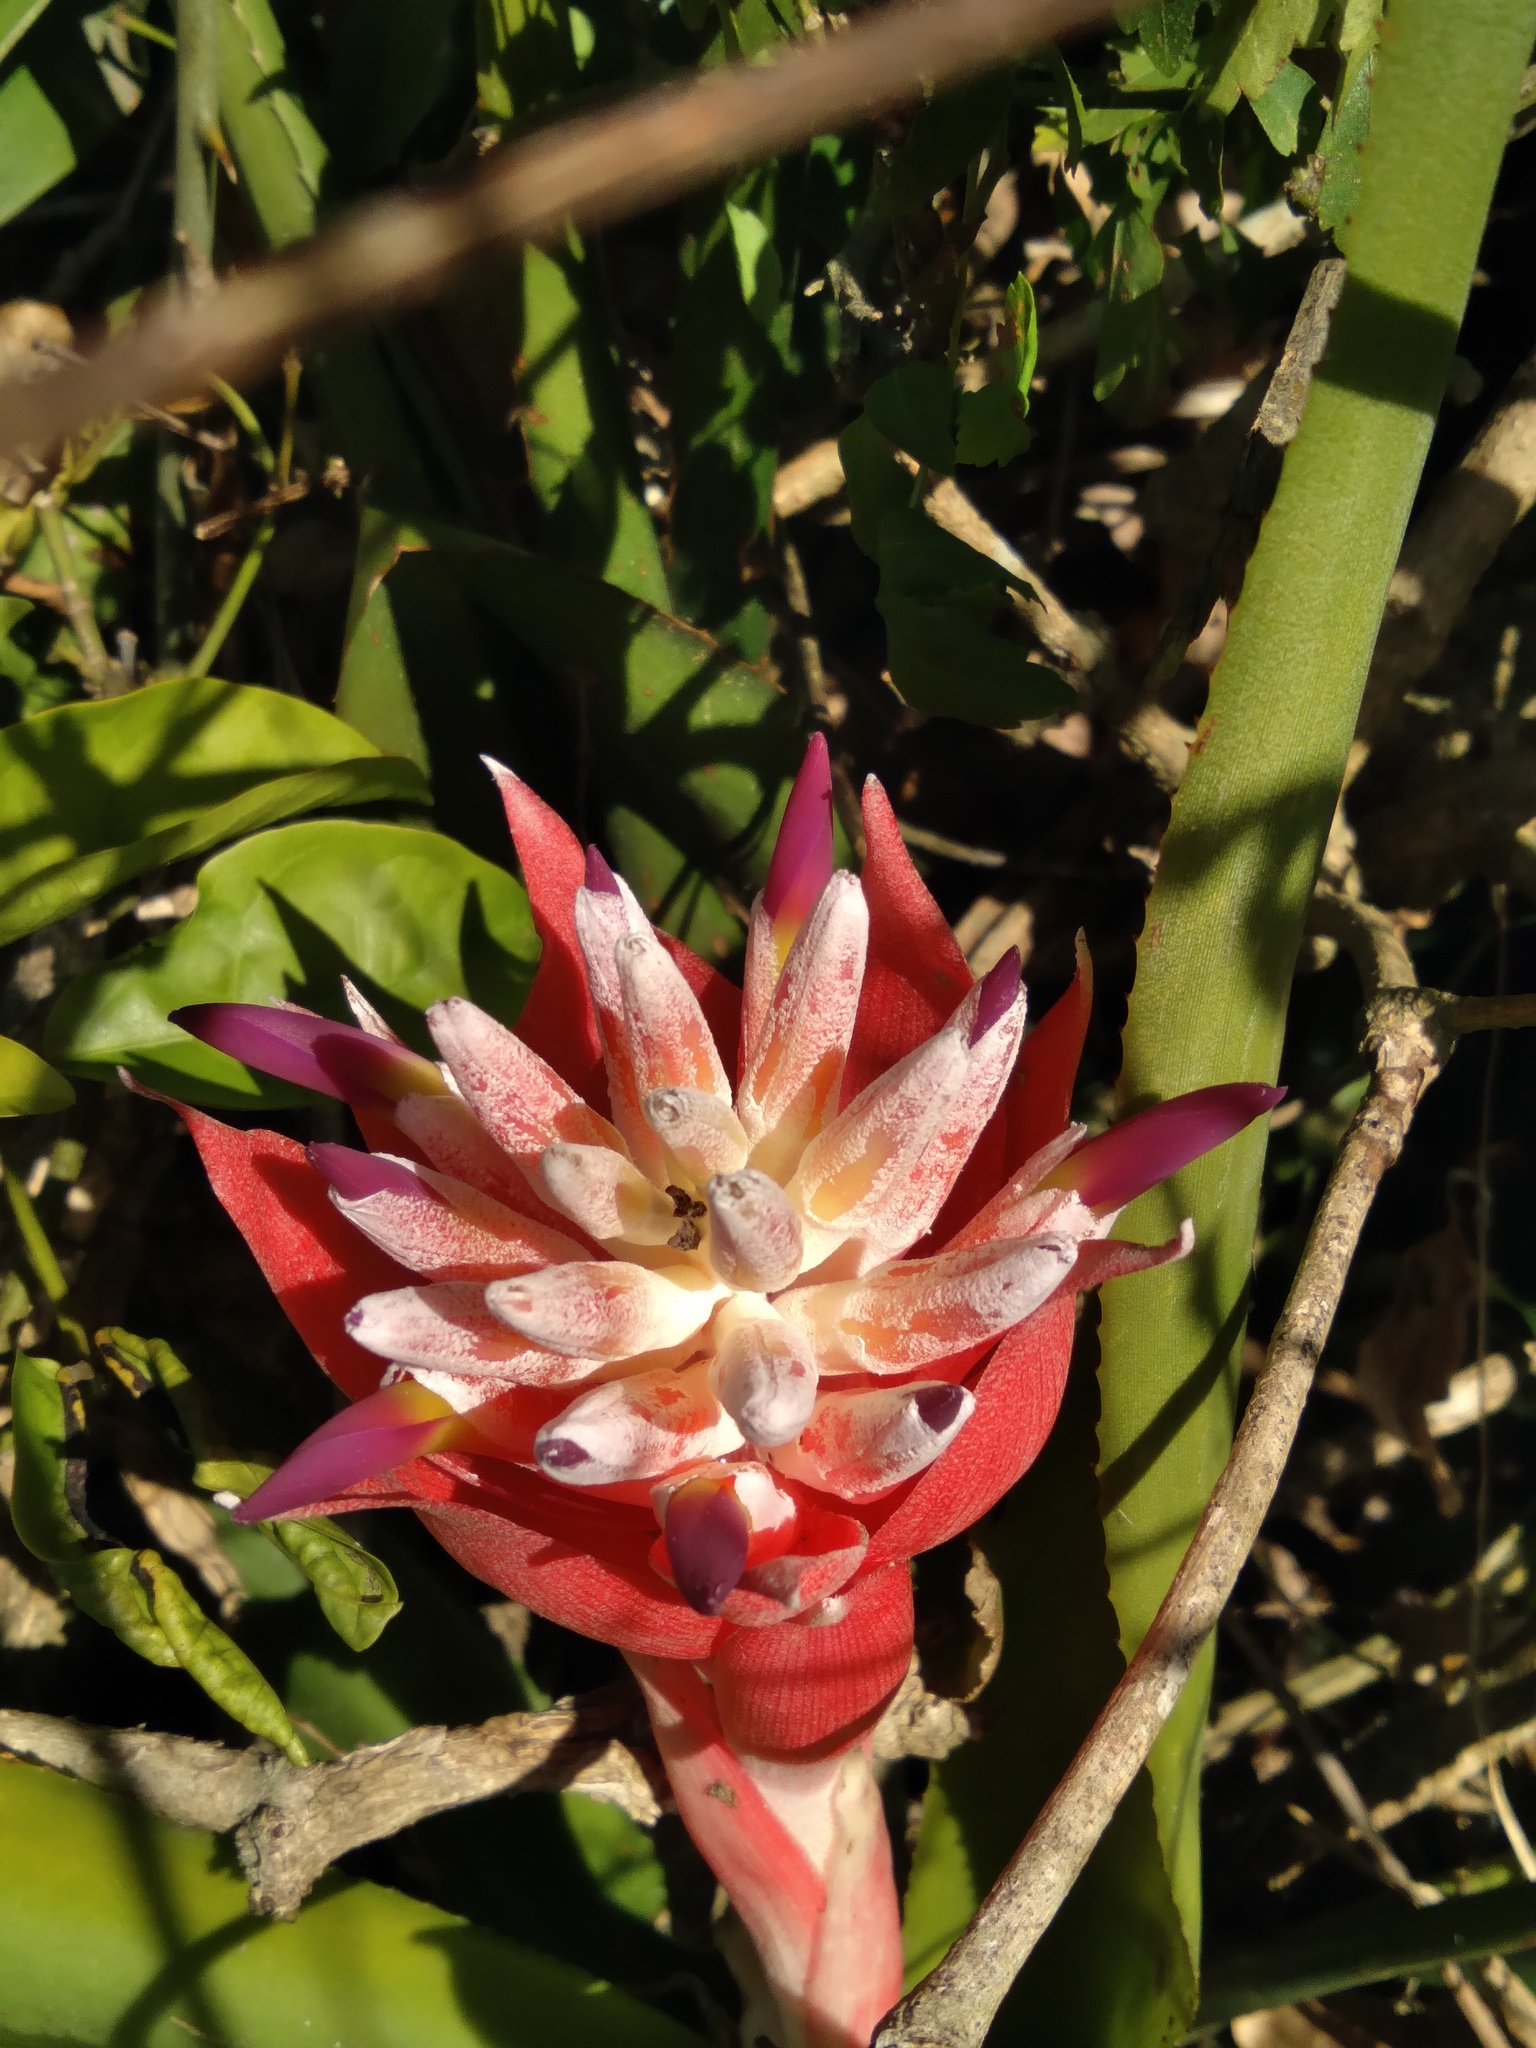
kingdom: Plantae
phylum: Tracheophyta
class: Liliopsida
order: Poales
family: Bromeliaceae
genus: Billbergia
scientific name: Billbergia pyramidalis
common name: Foolproofplant
